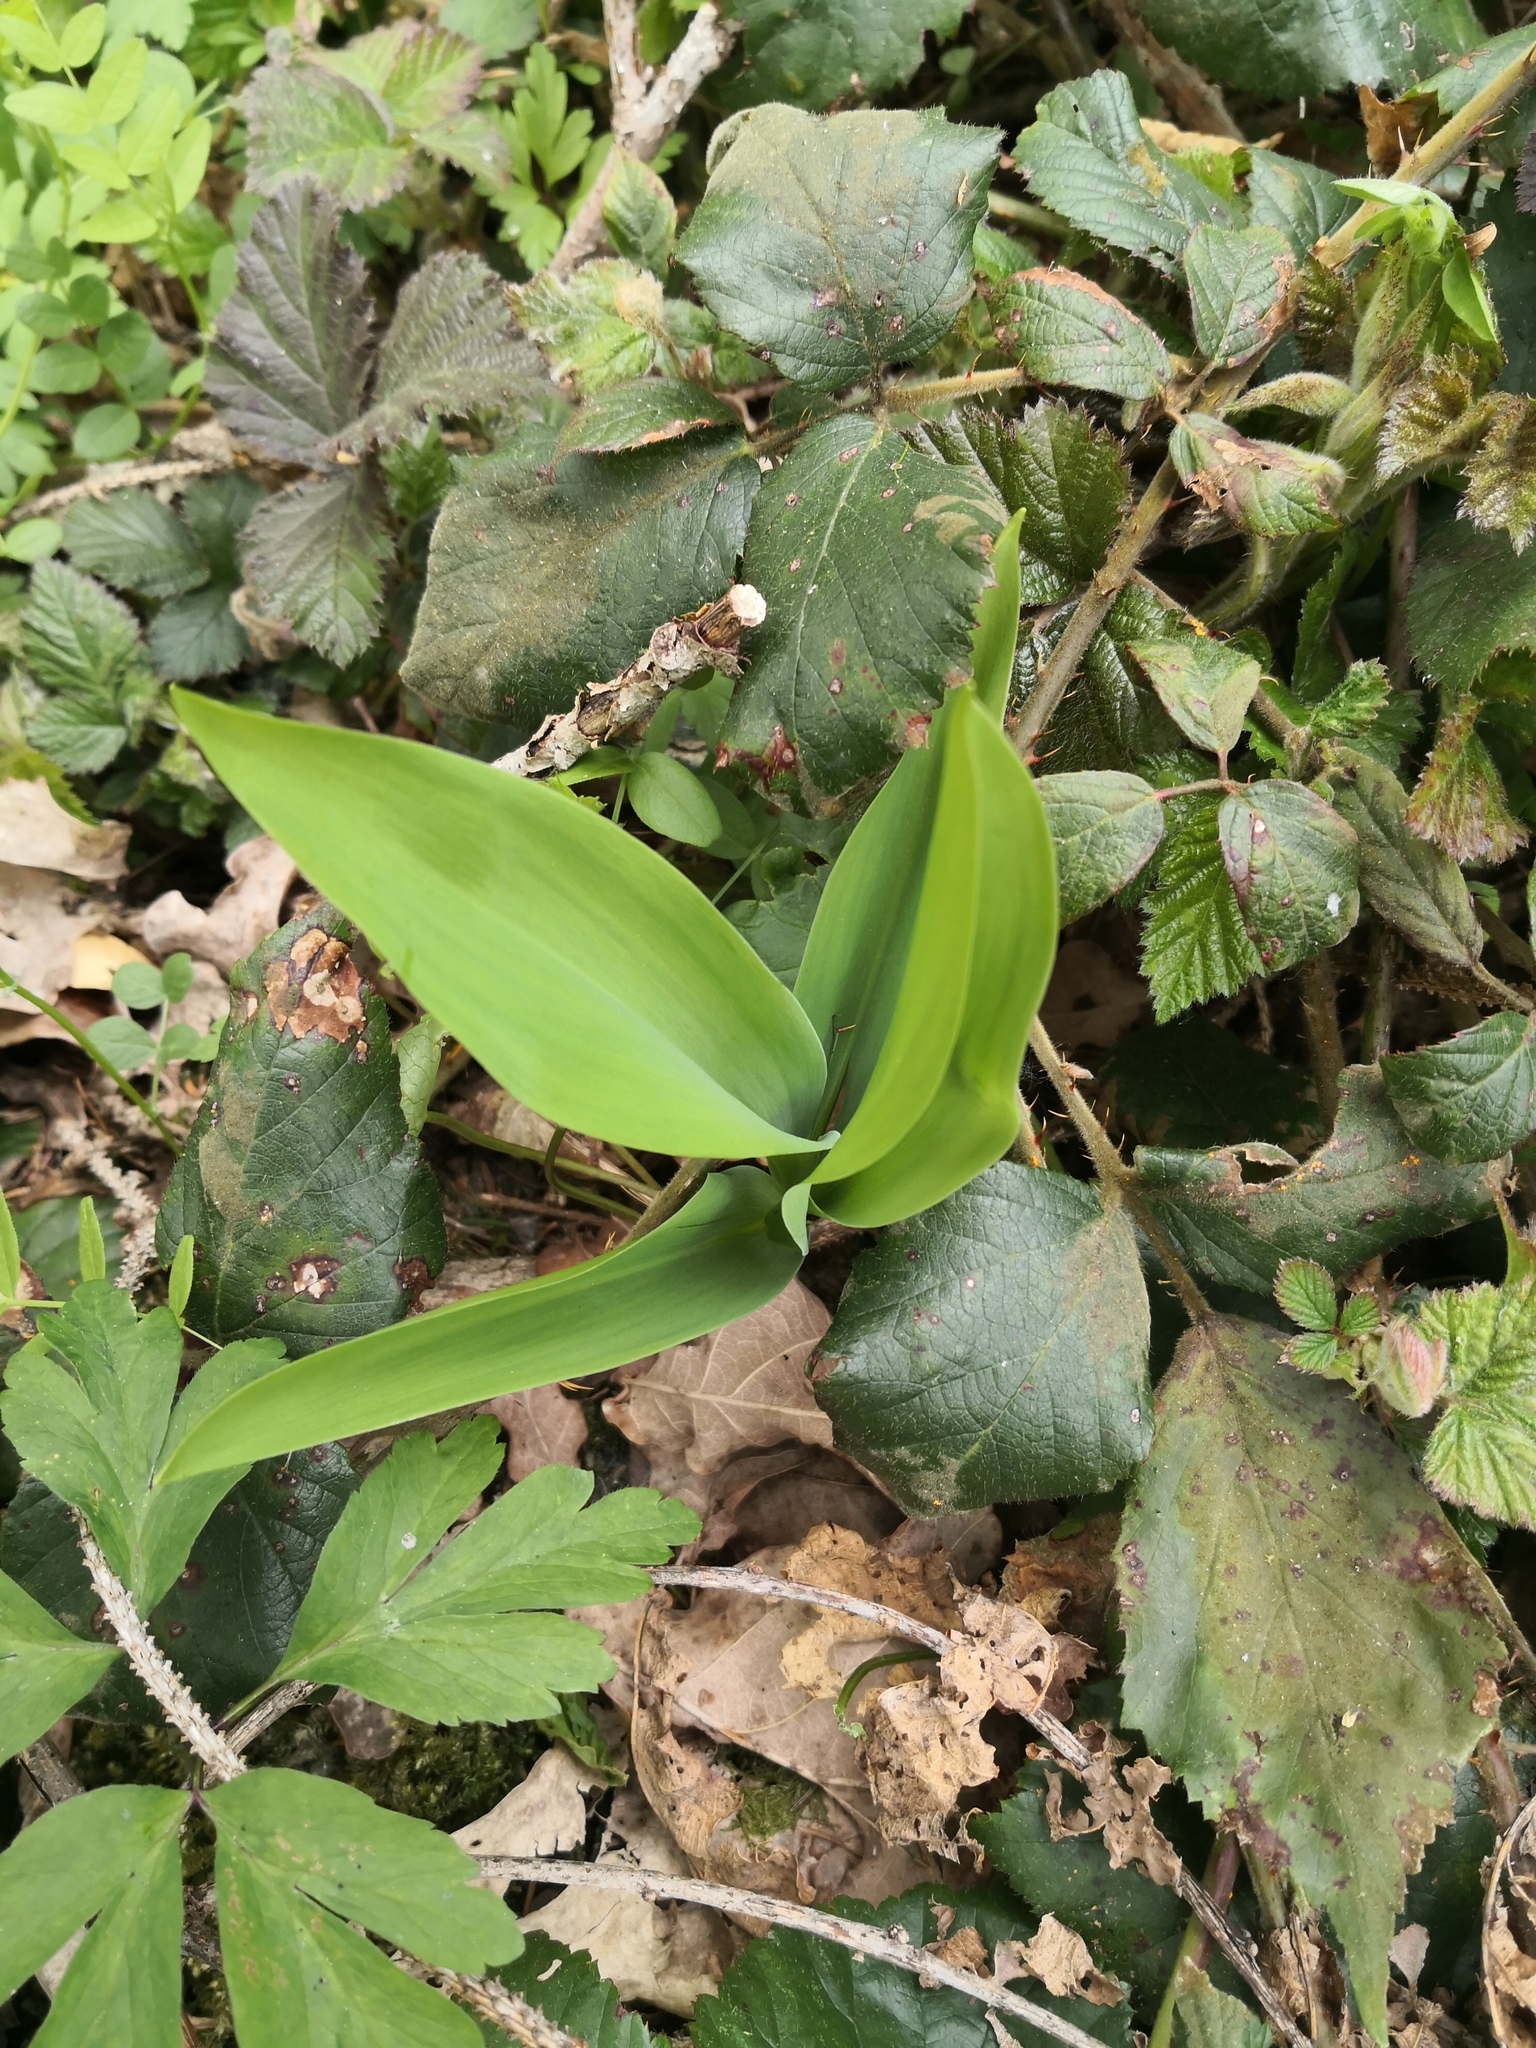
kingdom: Plantae
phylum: Tracheophyta
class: Liliopsida
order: Asparagales
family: Asparagaceae
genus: Convallaria
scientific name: Convallaria majalis
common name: Lily-of-the-valley
